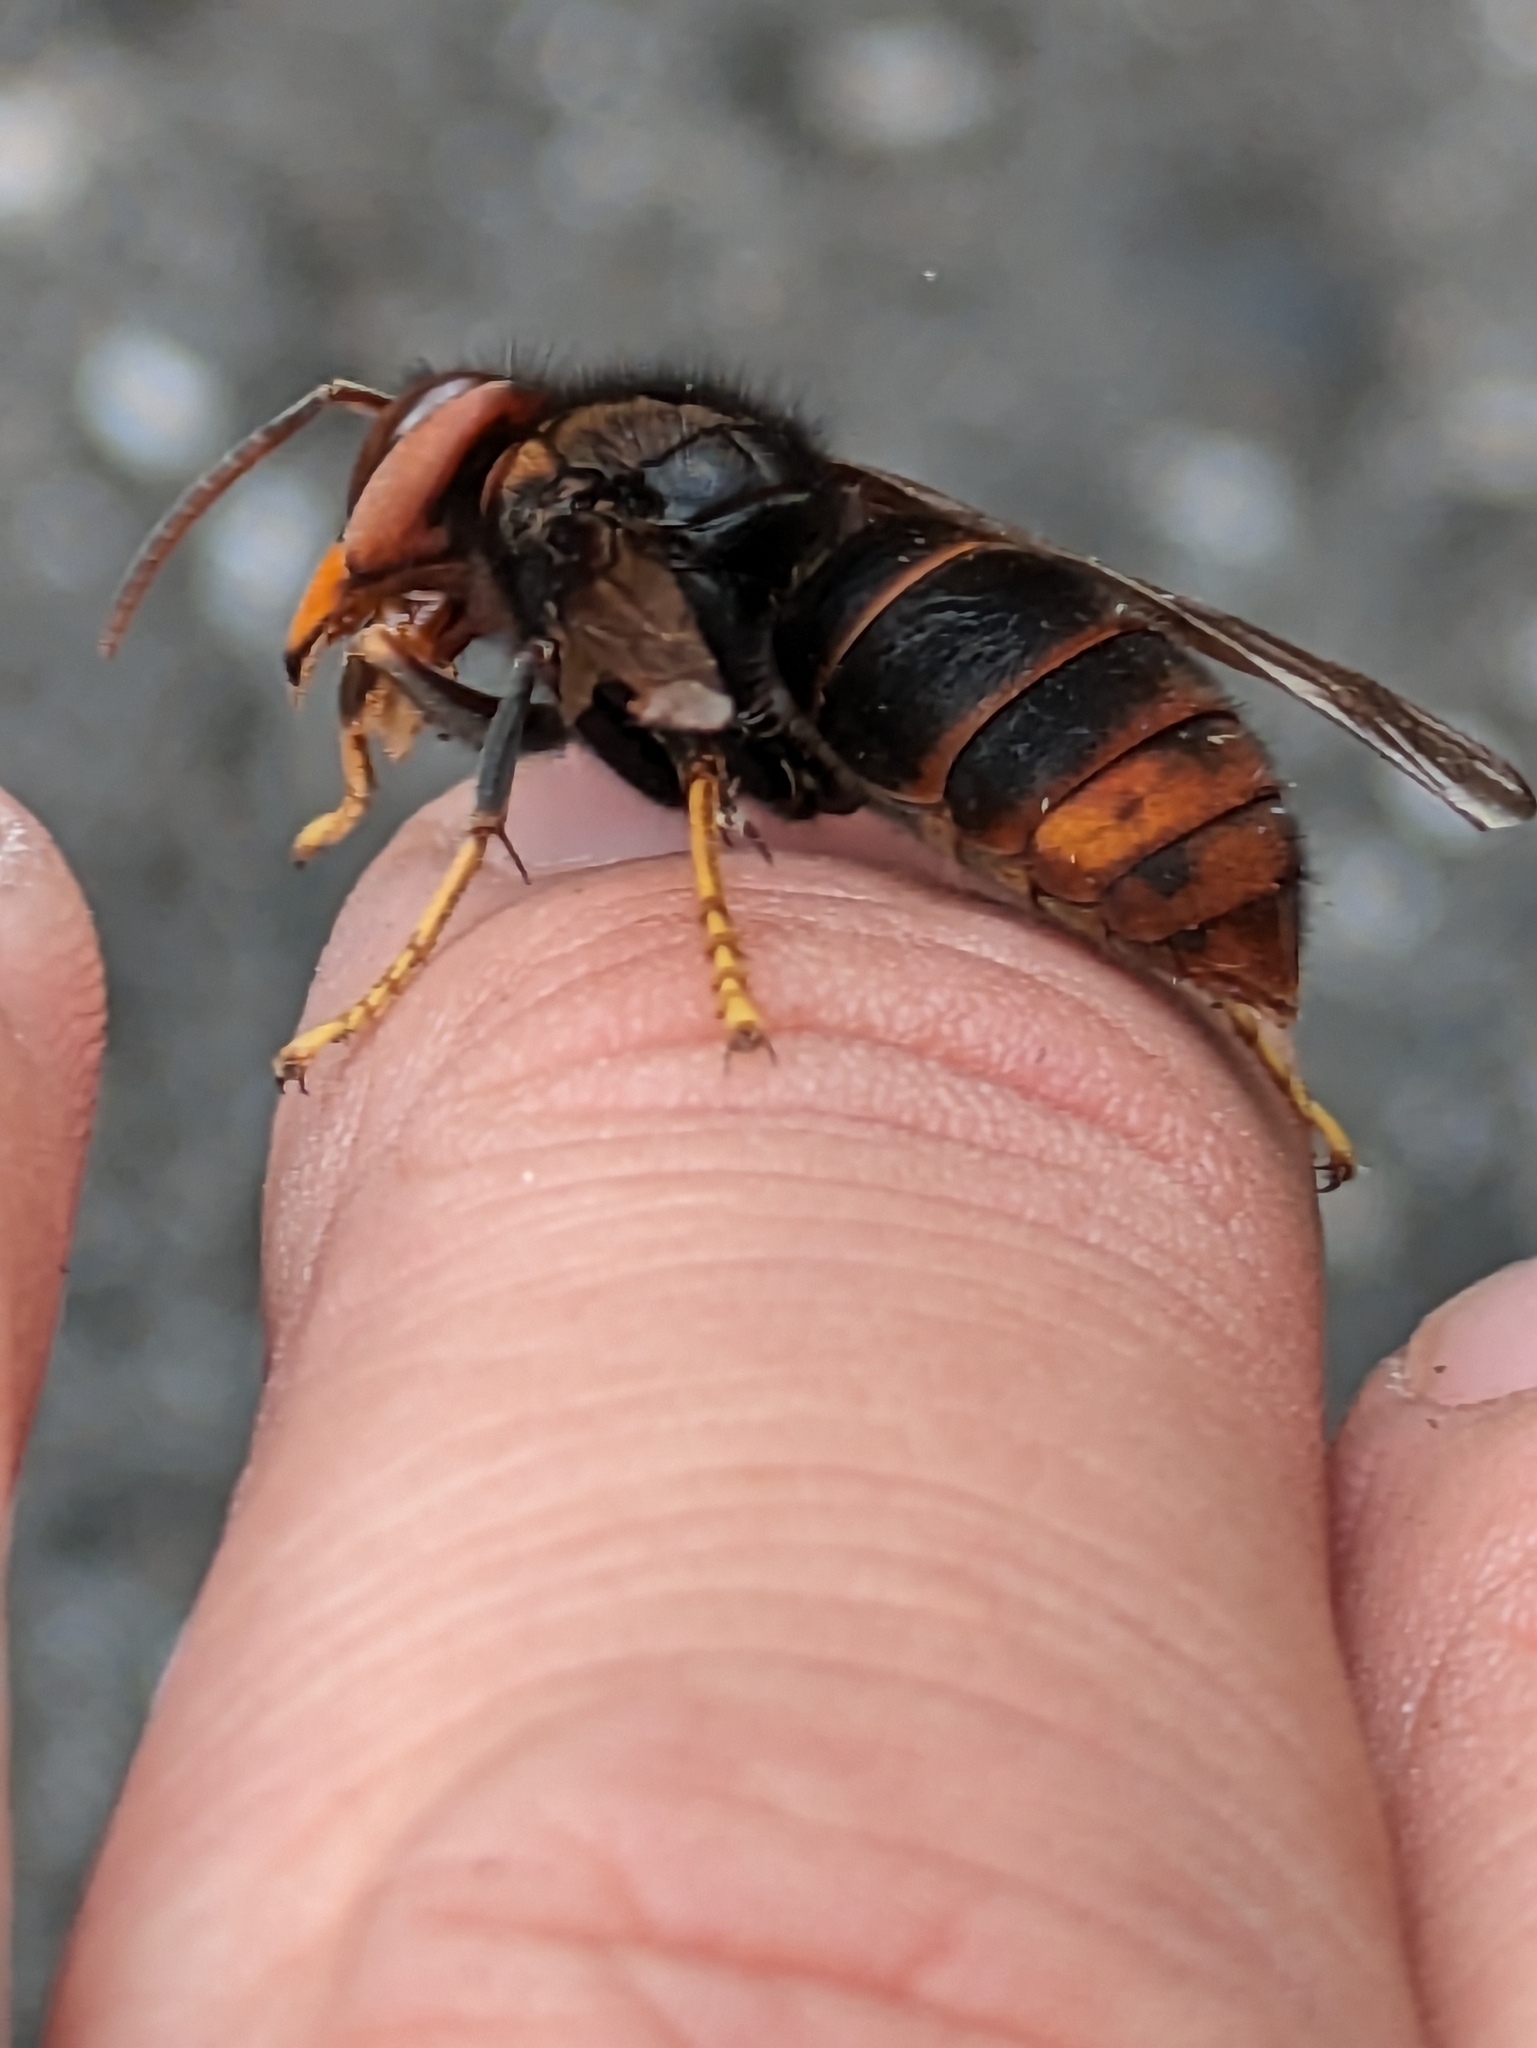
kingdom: Animalia
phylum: Arthropoda
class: Insecta
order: Hymenoptera
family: Vespidae
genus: Vespa
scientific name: Vespa velutina
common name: Asian hornet
